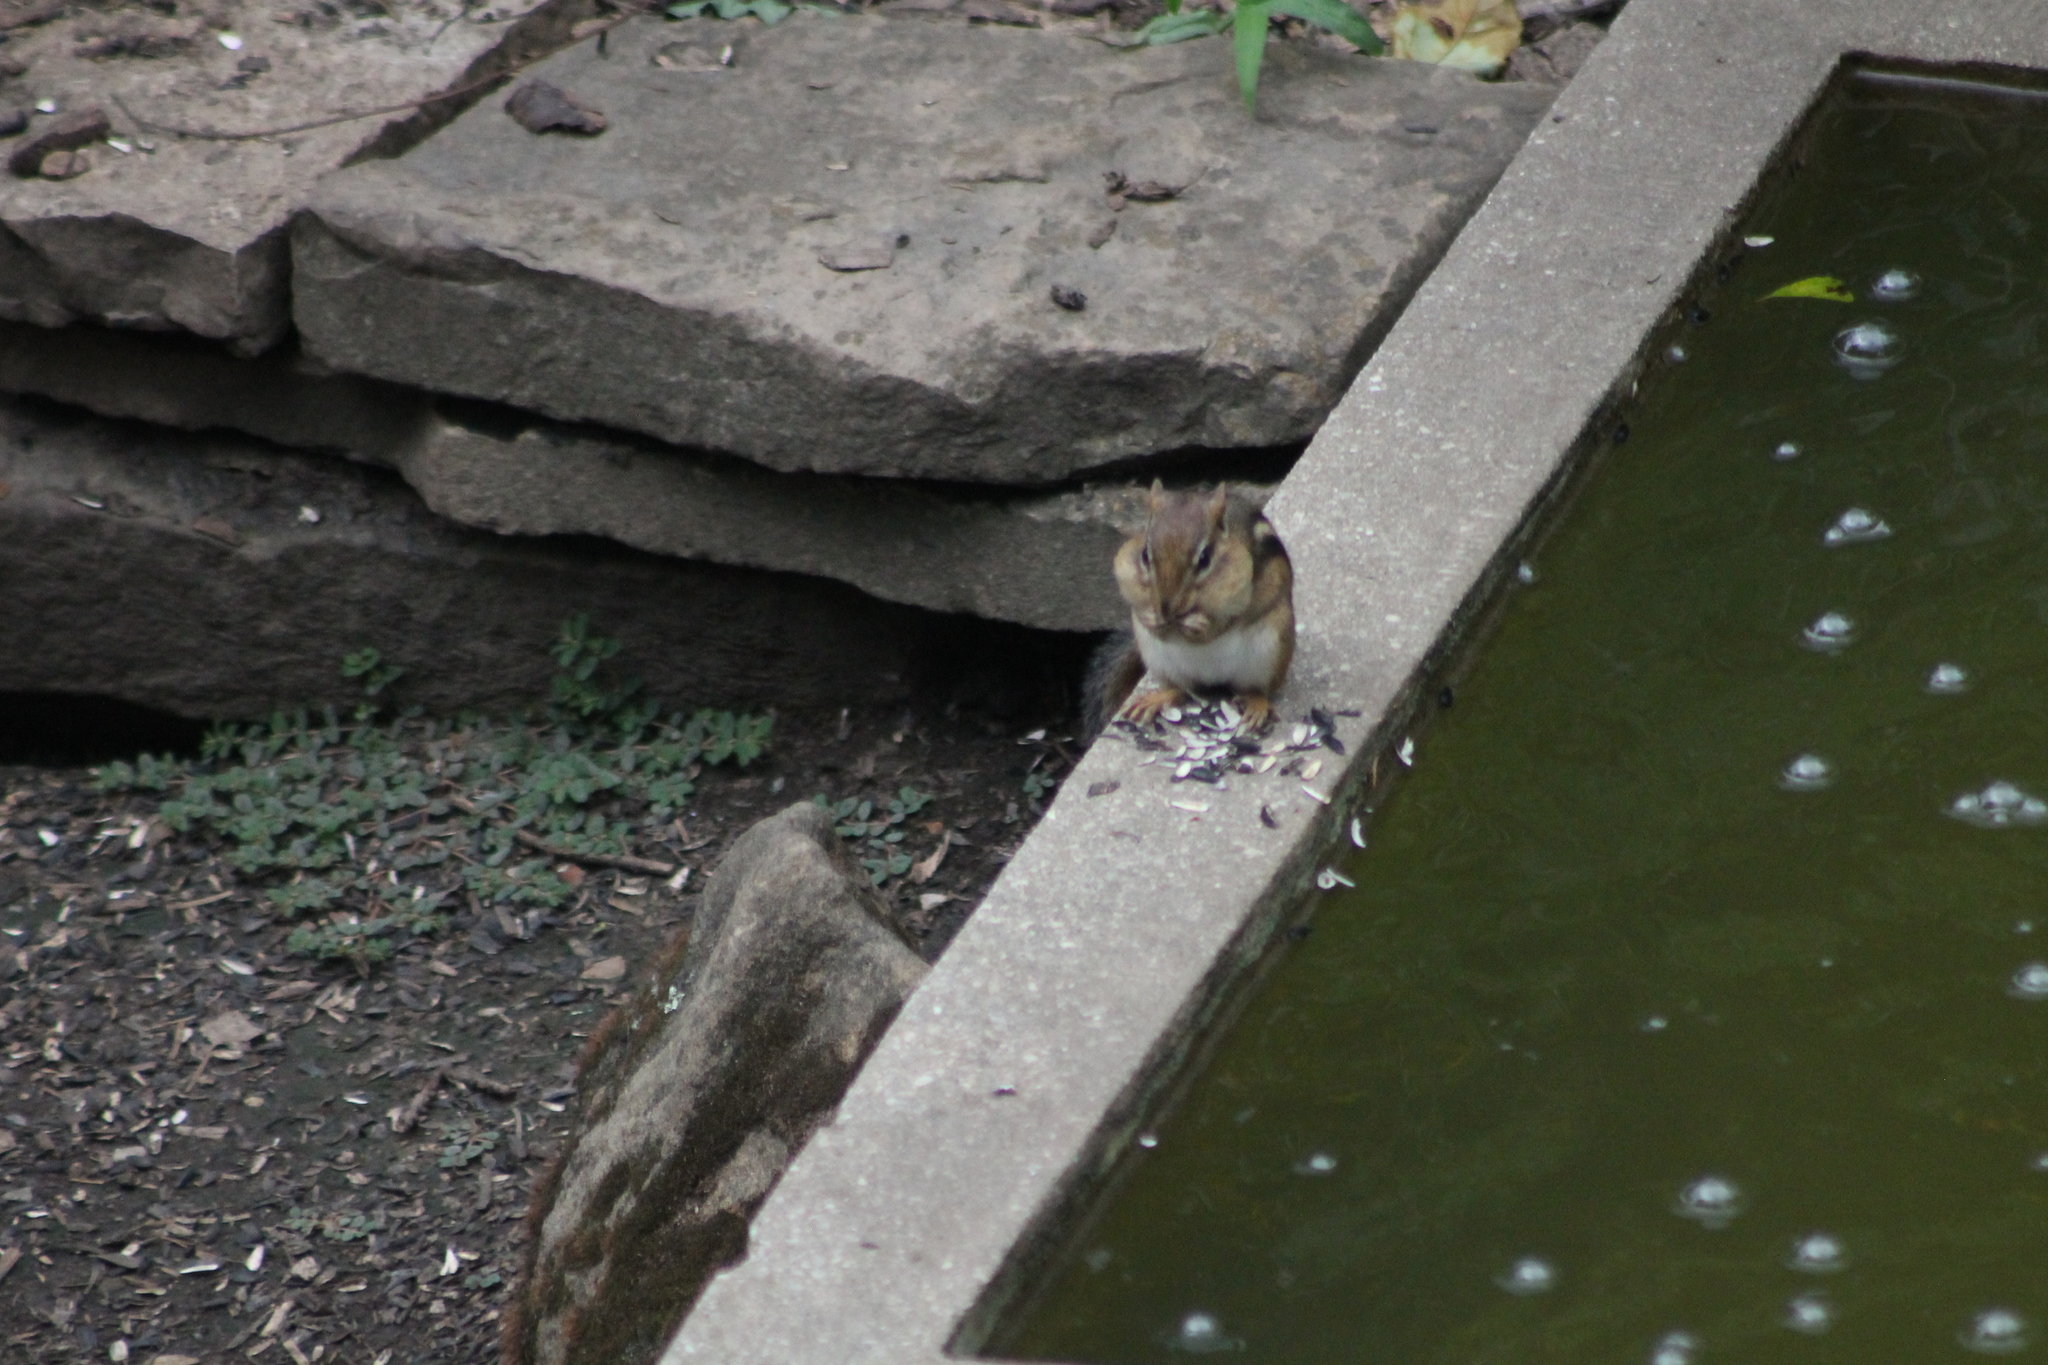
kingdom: Animalia
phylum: Chordata
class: Mammalia
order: Rodentia
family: Sciuridae
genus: Tamias
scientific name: Tamias striatus
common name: Eastern chipmunk
